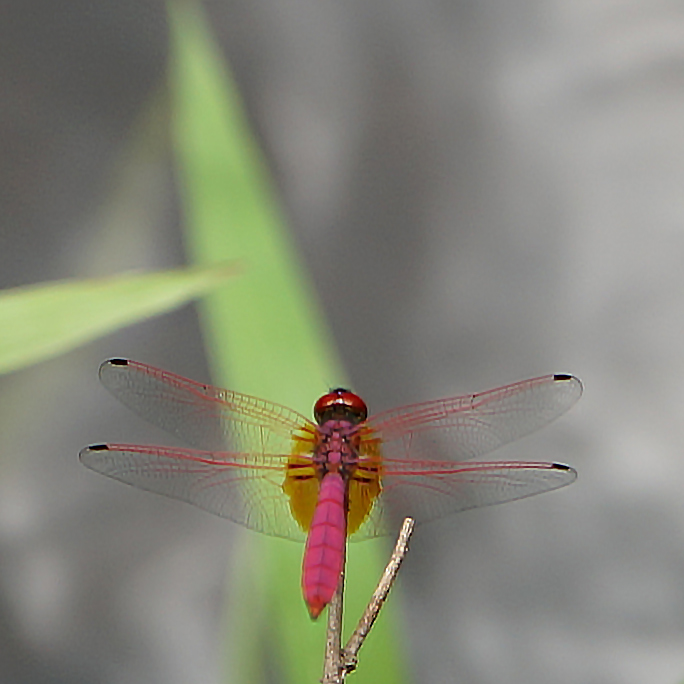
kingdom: Animalia
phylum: Arthropoda
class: Insecta
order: Odonata
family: Libellulidae
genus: Trithemis
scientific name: Trithemis aurora
